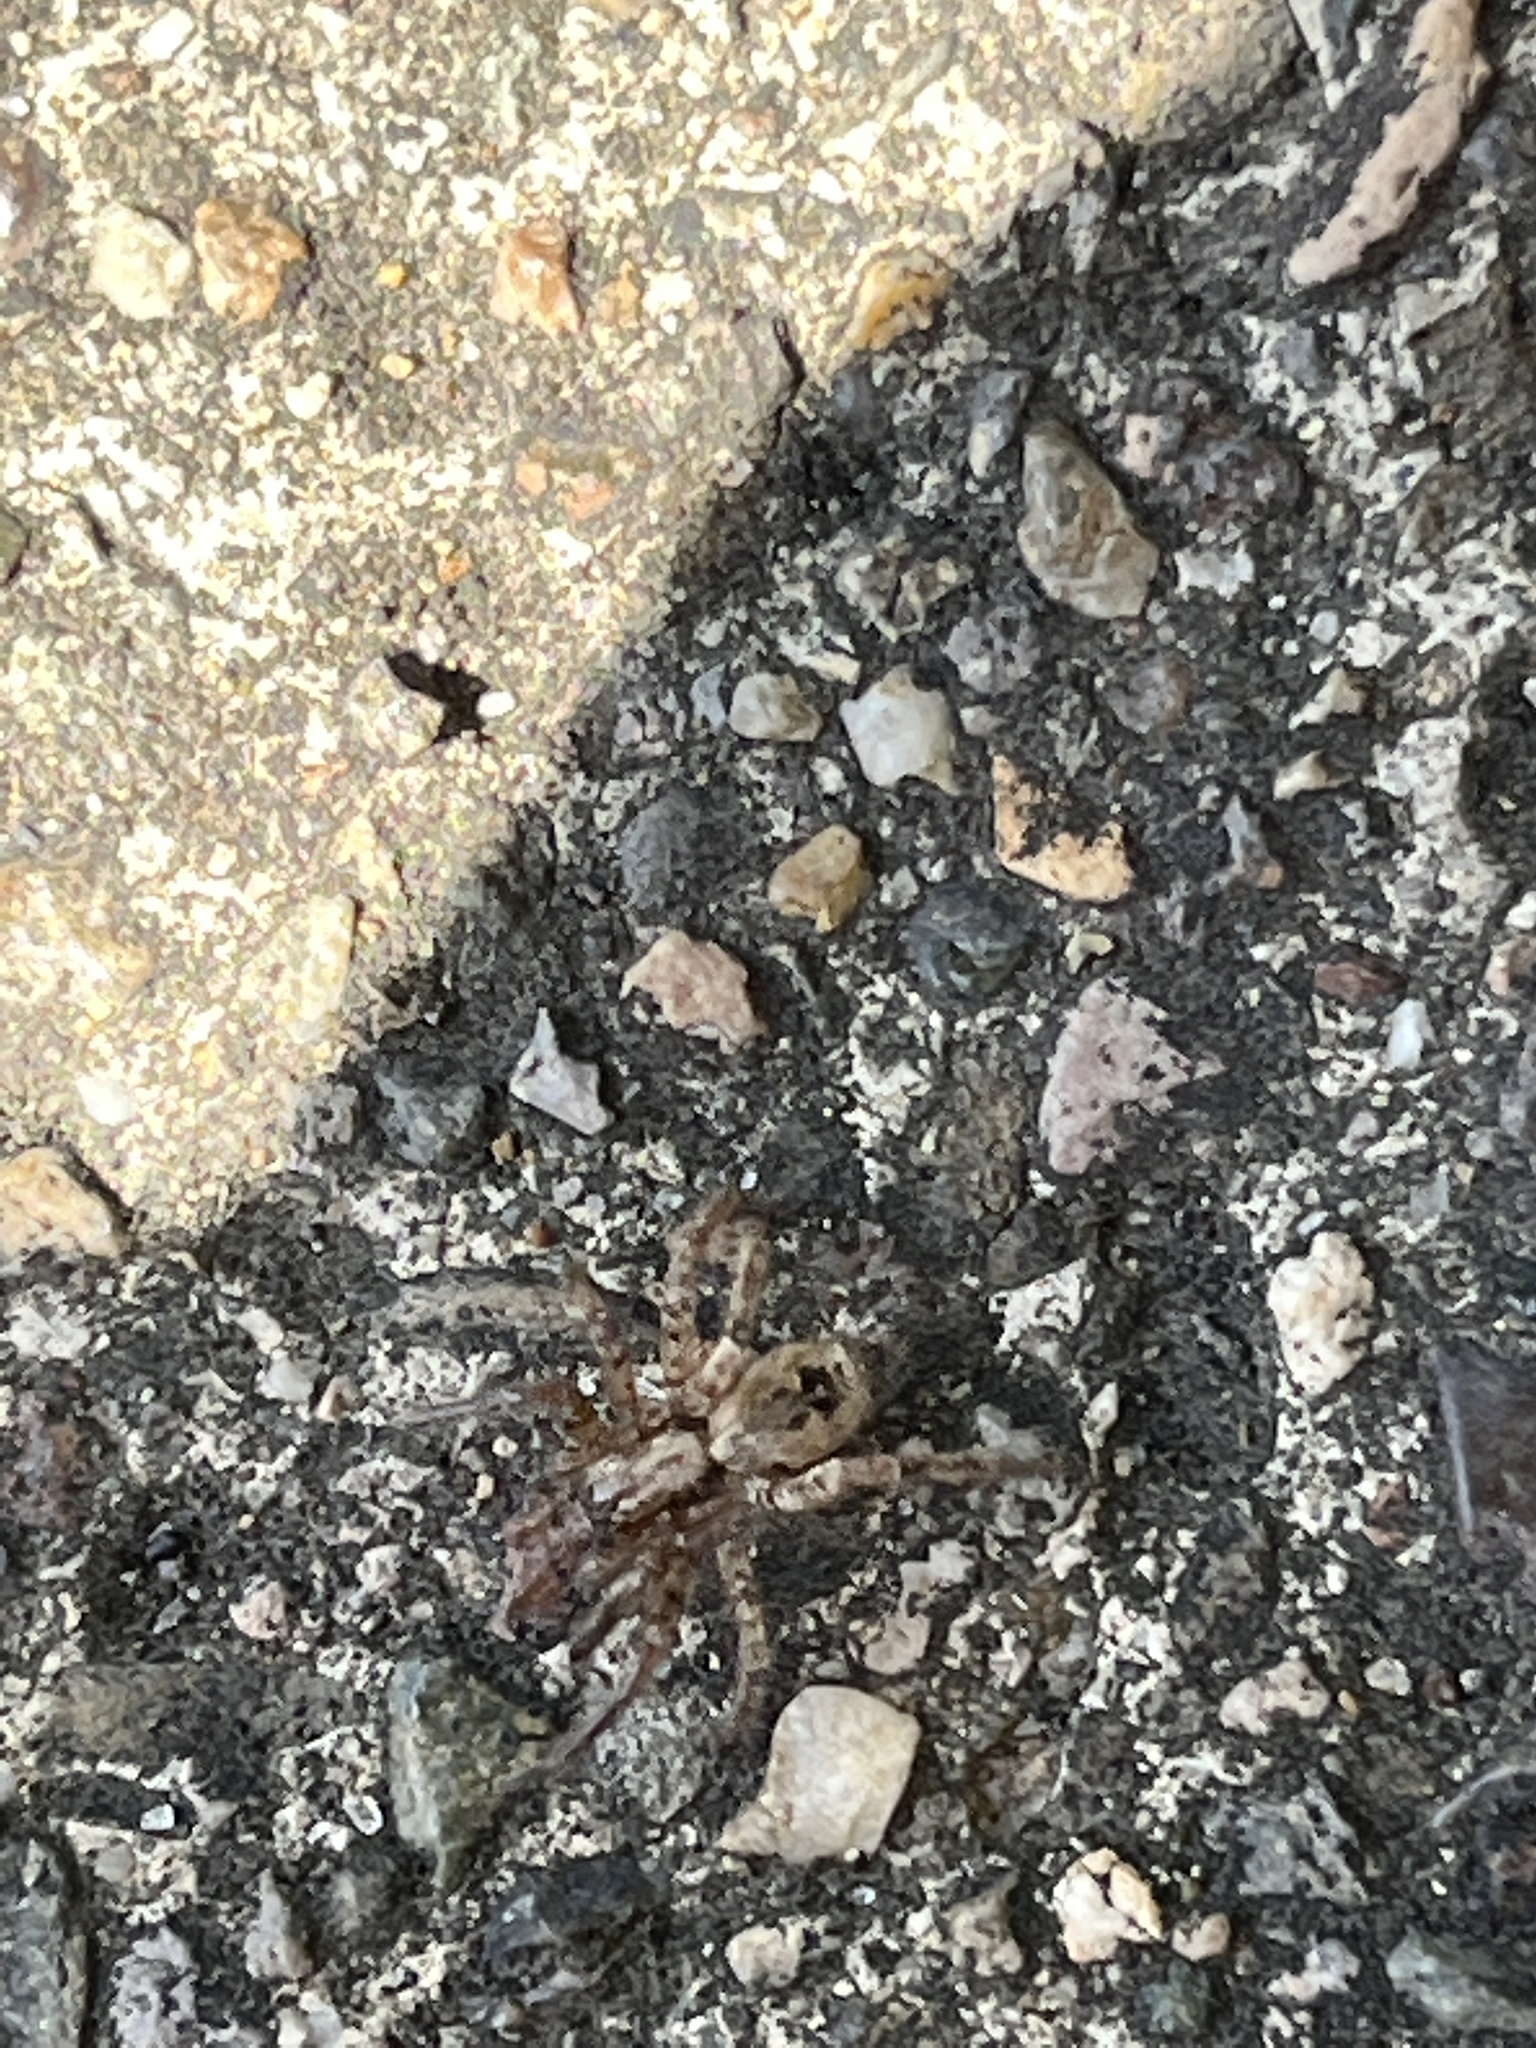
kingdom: Animalia
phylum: Arthropoda
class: Arachnida
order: Araneae
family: Zoropsidae
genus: Zoropsis
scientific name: Zoropsis spinimana
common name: Zoropsid spider
